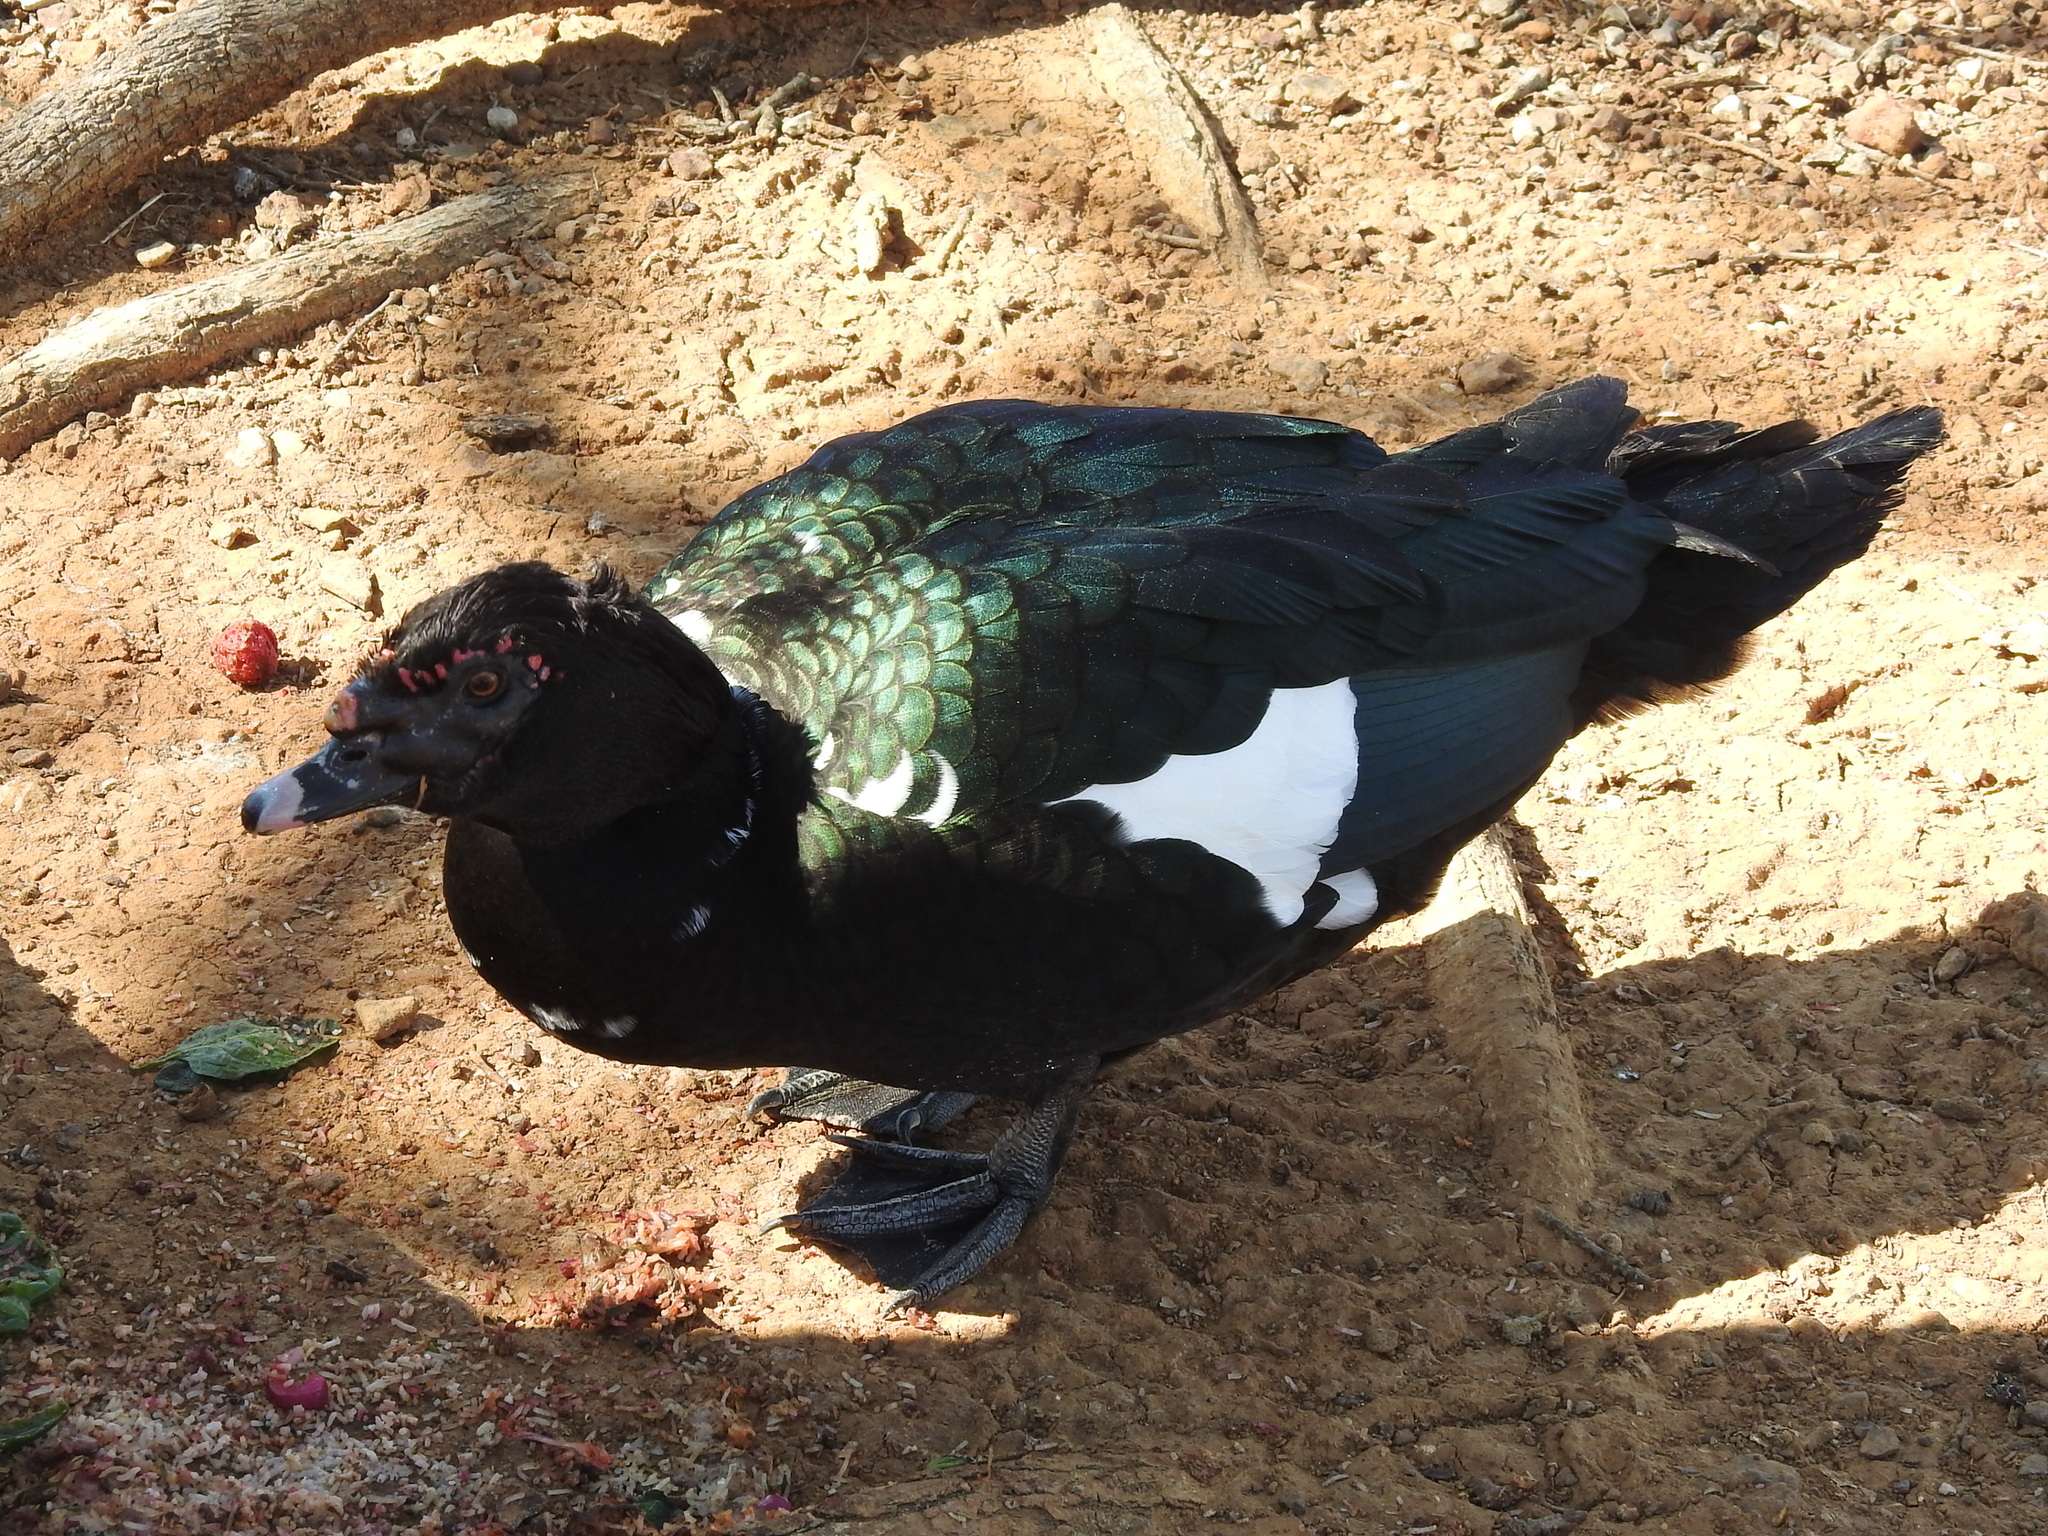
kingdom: Animalia
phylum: Chordata
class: Aves
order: Anseriformes
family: Anatidae
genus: Cairina
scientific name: Cairina moschata
